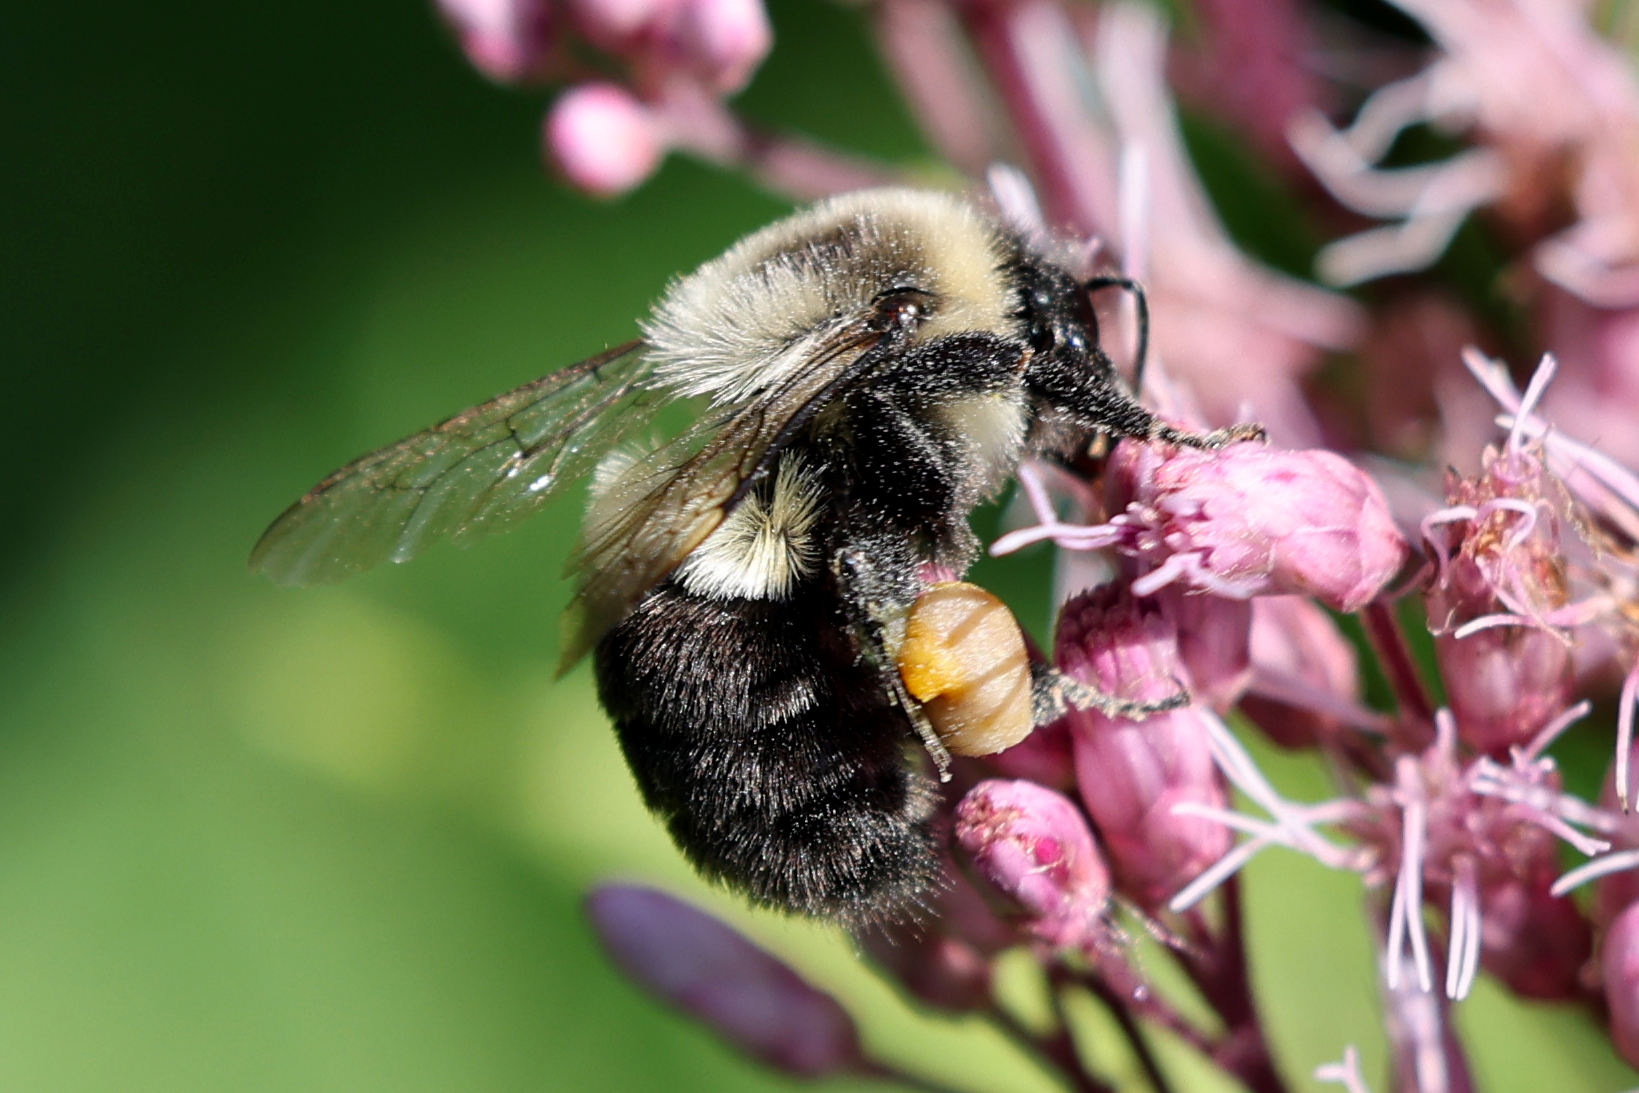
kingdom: Animalia
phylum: Arthropoda
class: Insecta
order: Hymenoptera
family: Apidae
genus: Bombus
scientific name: Bombus impatiens
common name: Common eastern bumble bee
